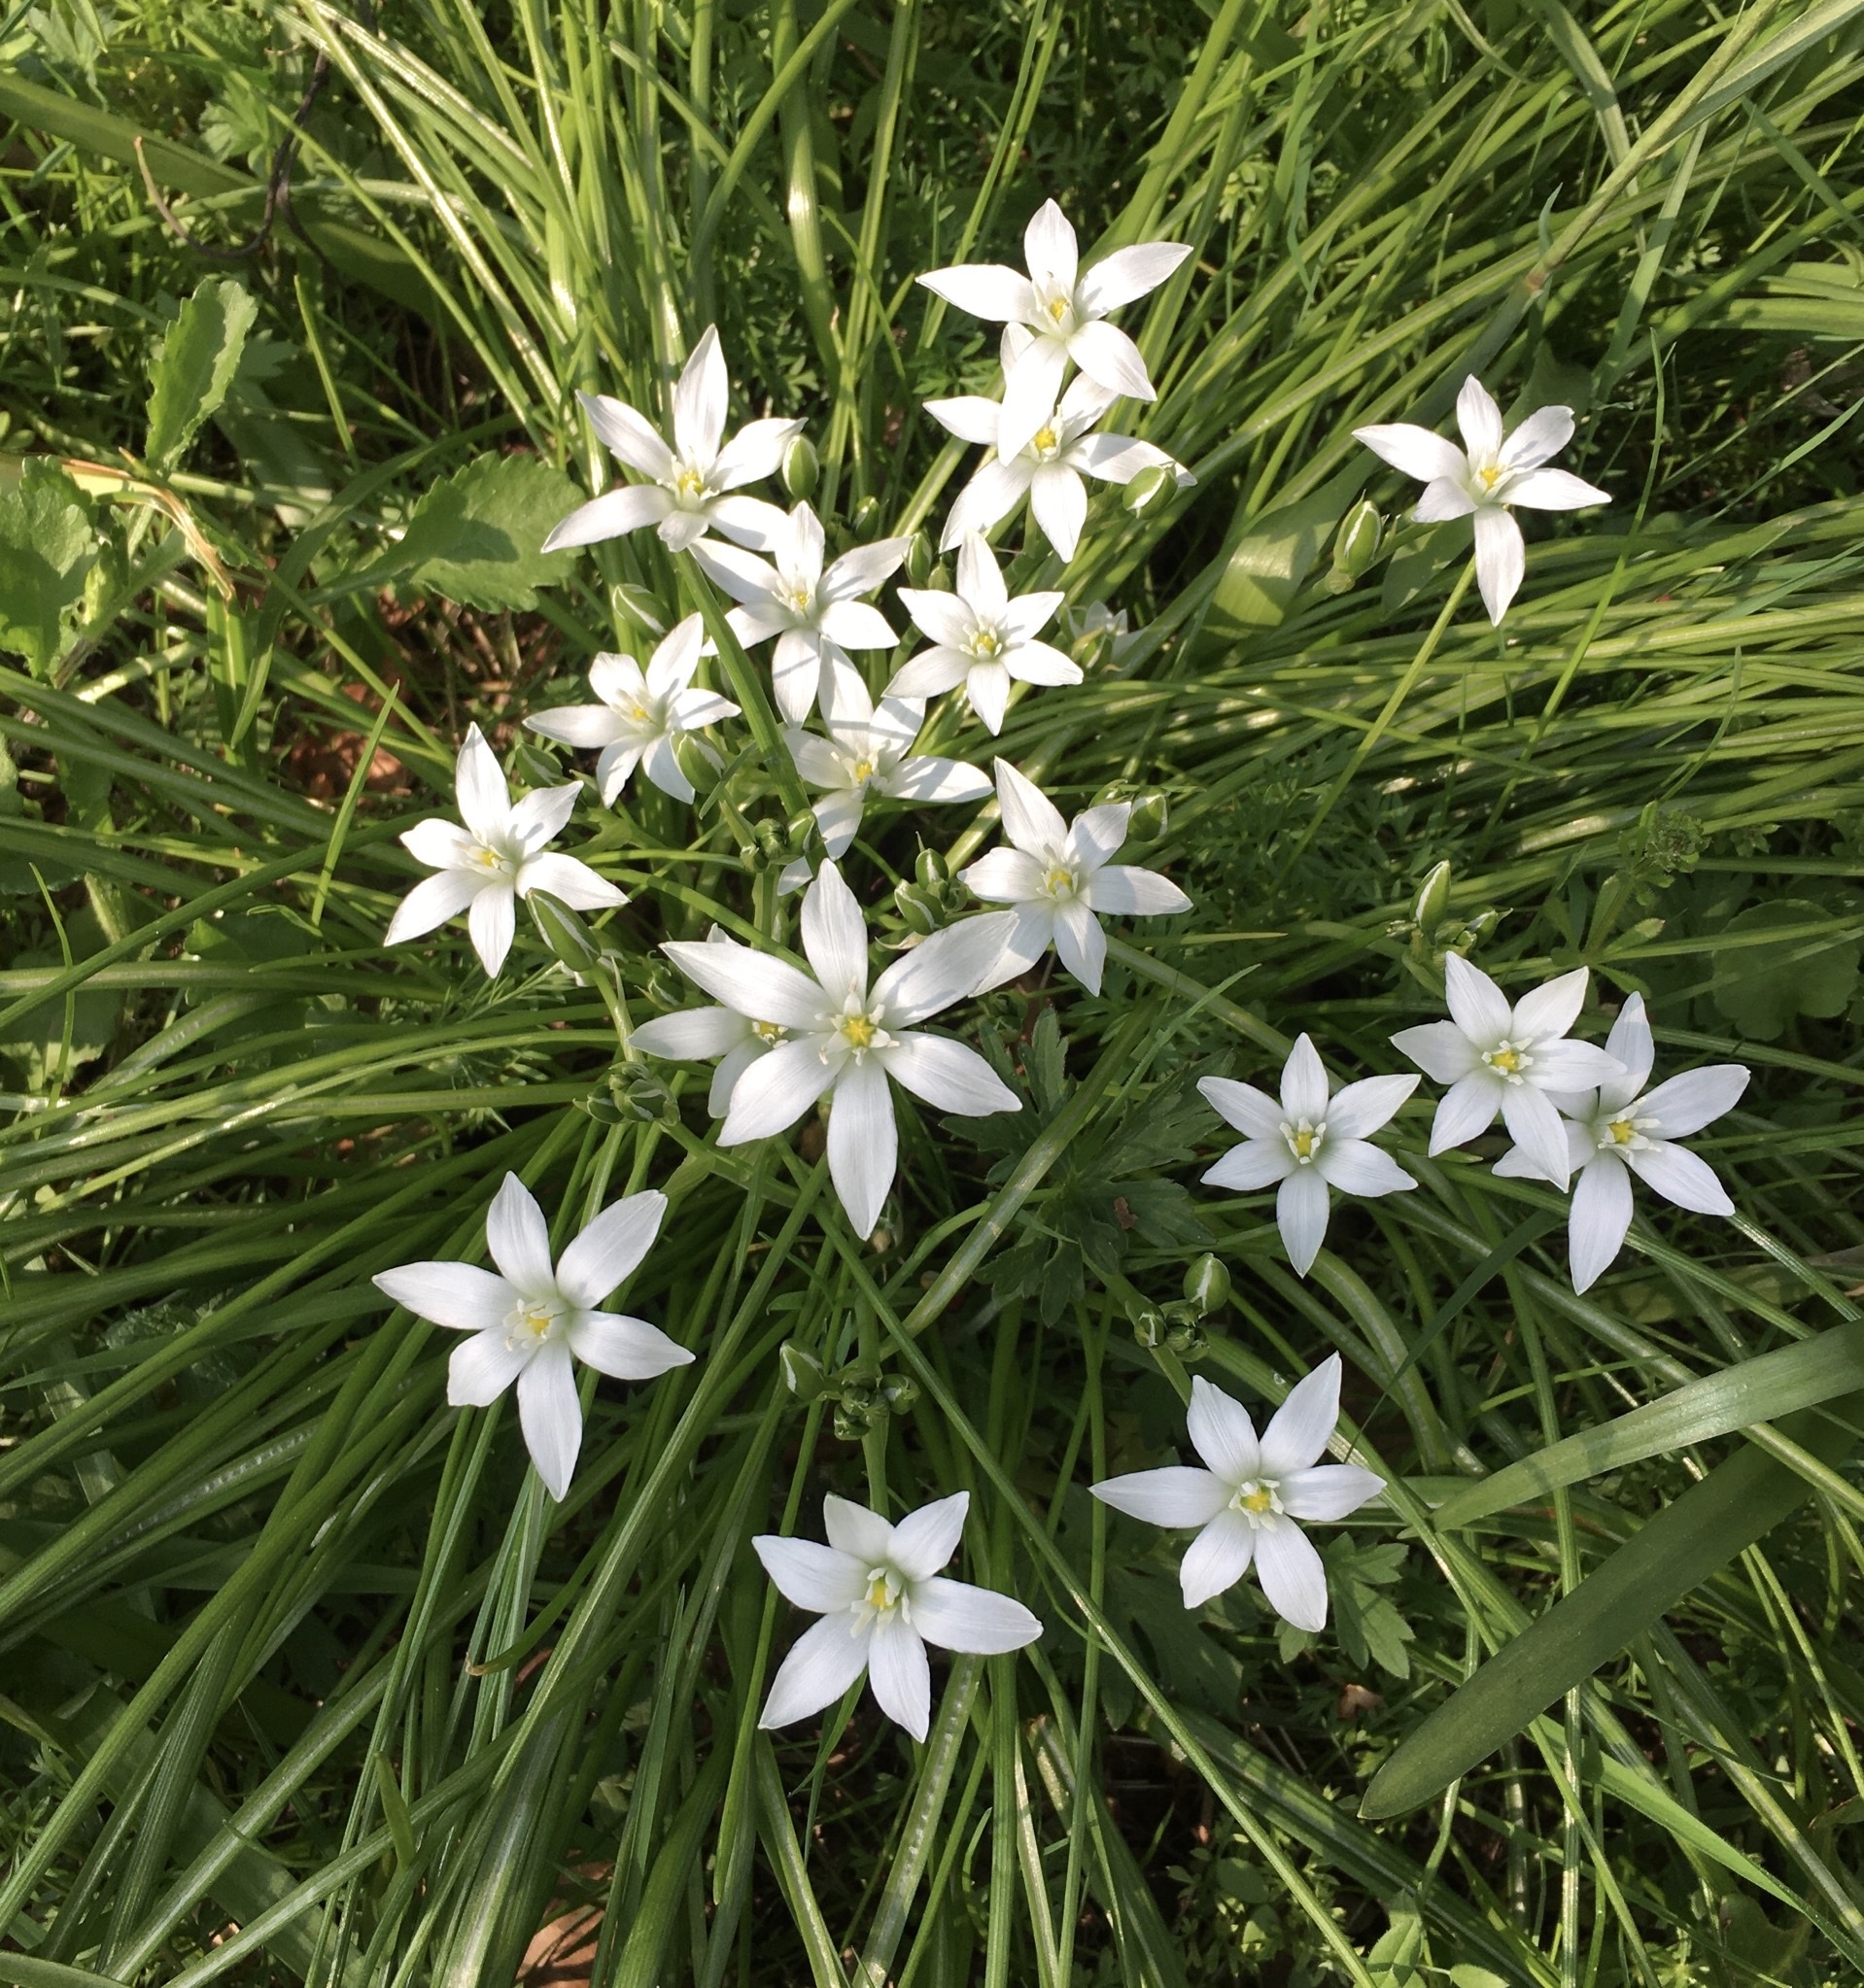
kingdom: Plantae
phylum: Tracheophyta
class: Liliopsida
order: Asparagales
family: Asparagaceae
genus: Ornithogalum
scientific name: Ornithogalum umbellatum
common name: Garden star-of-bethlehem
